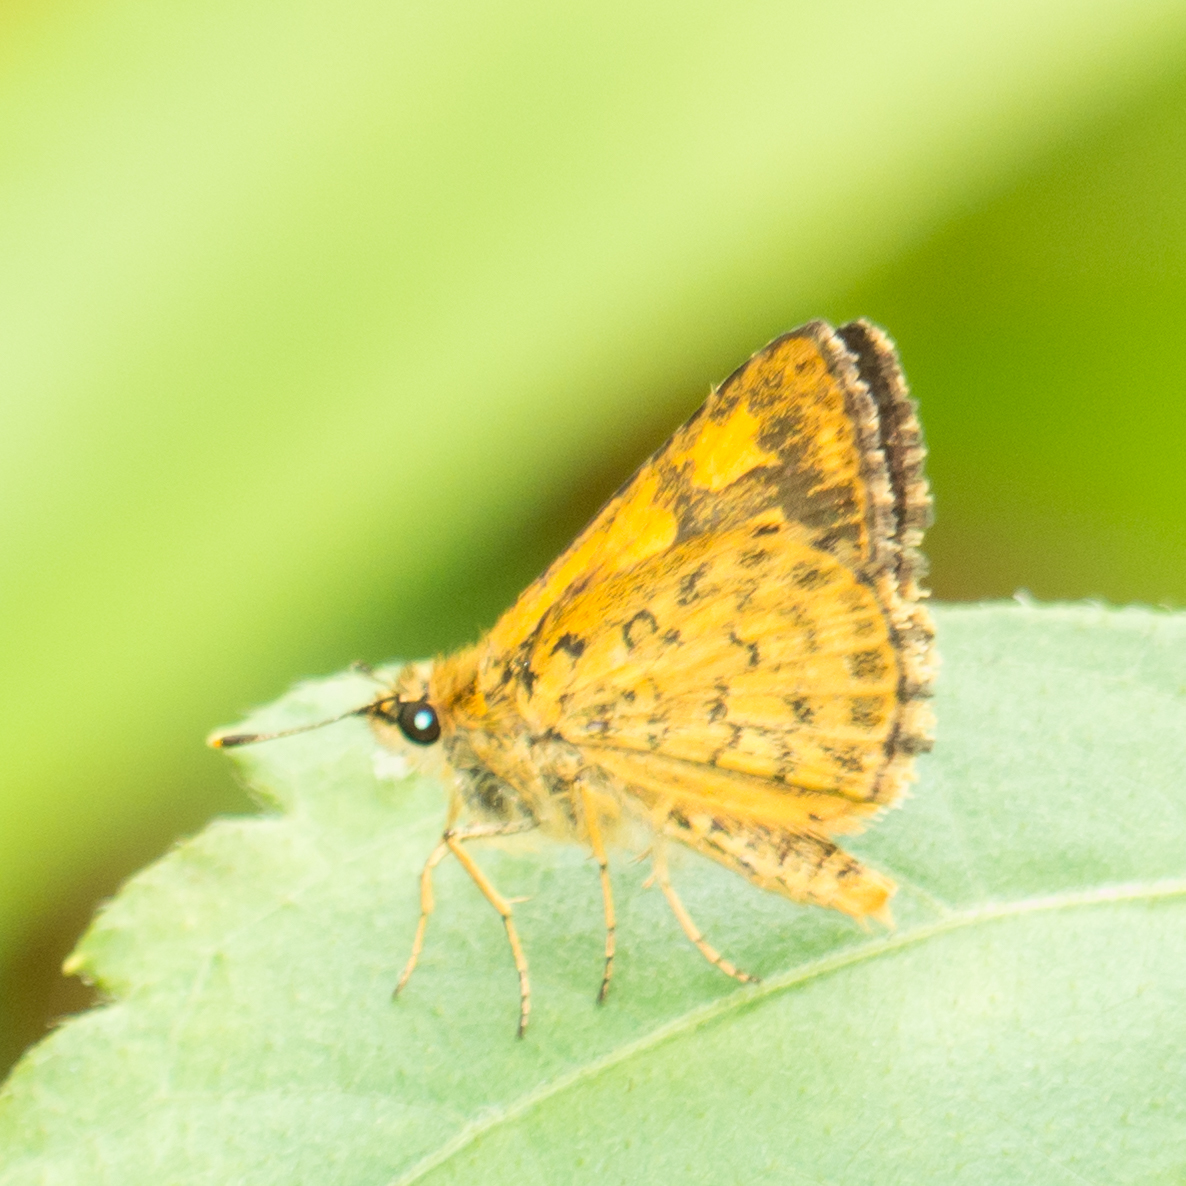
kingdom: Animalia
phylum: Arthropoda
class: Insecta
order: Lepidoptera
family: Hesperiidae
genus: Ampittia
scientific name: Ampittia dioscorides
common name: Common bush hopper
